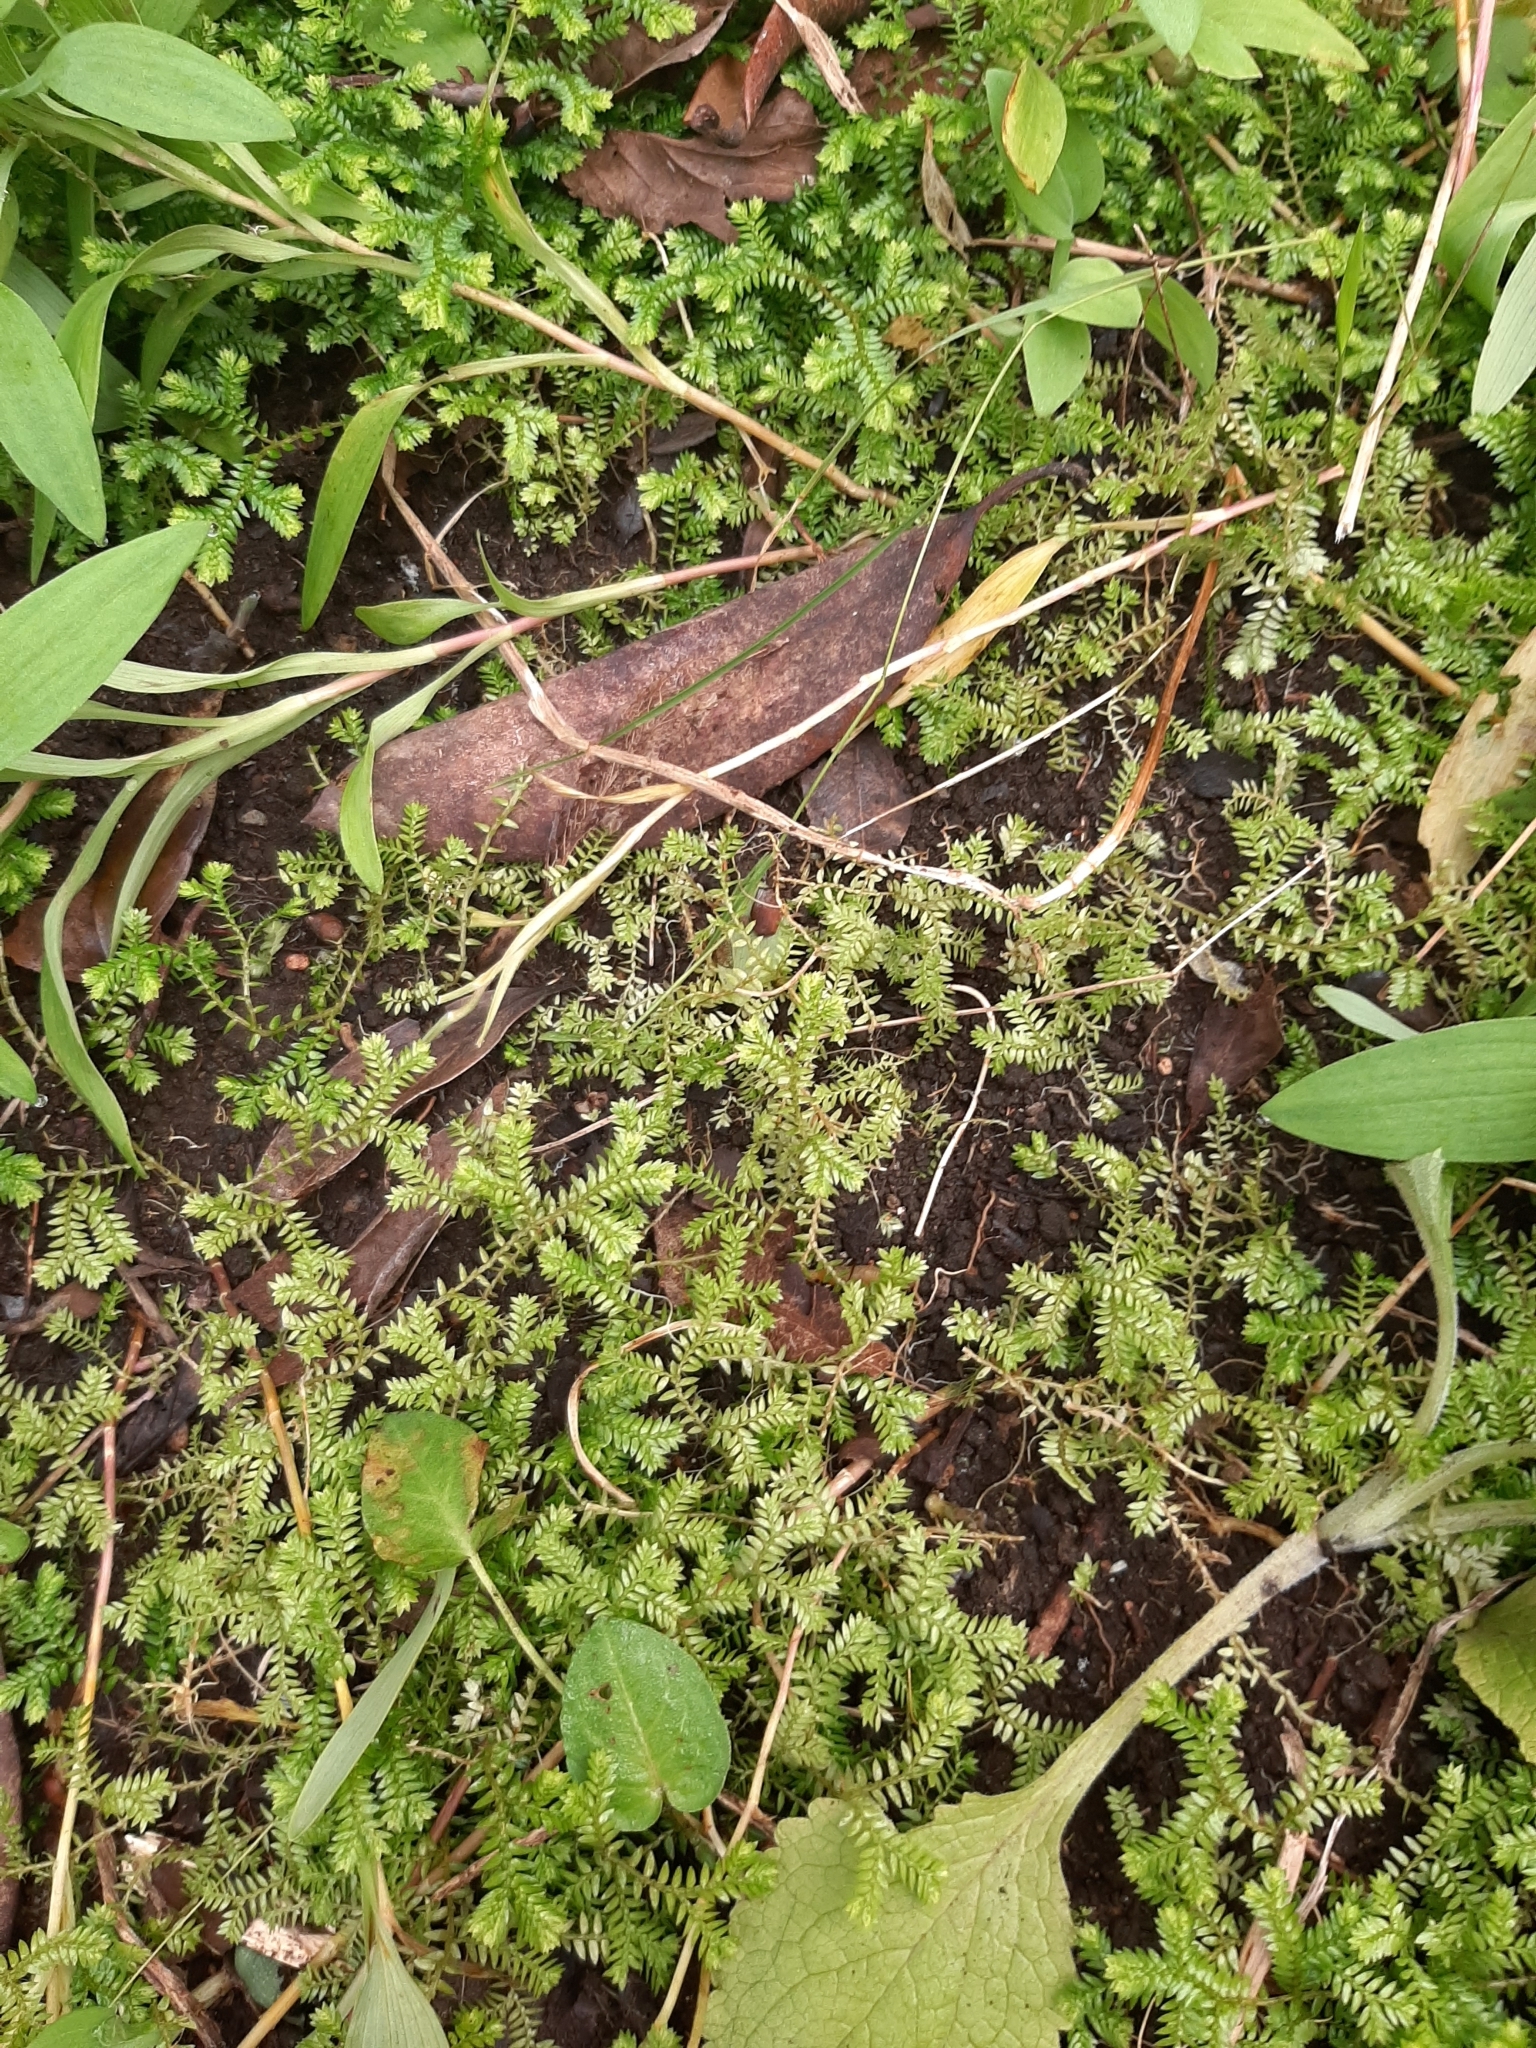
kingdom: Plantae
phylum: Tracheophyta
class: Lycopodiopsida
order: Selaginellales
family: Selaginellaceae
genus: Selaginella
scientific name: Selaginella kraussiana
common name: Krauss' spikemoss
